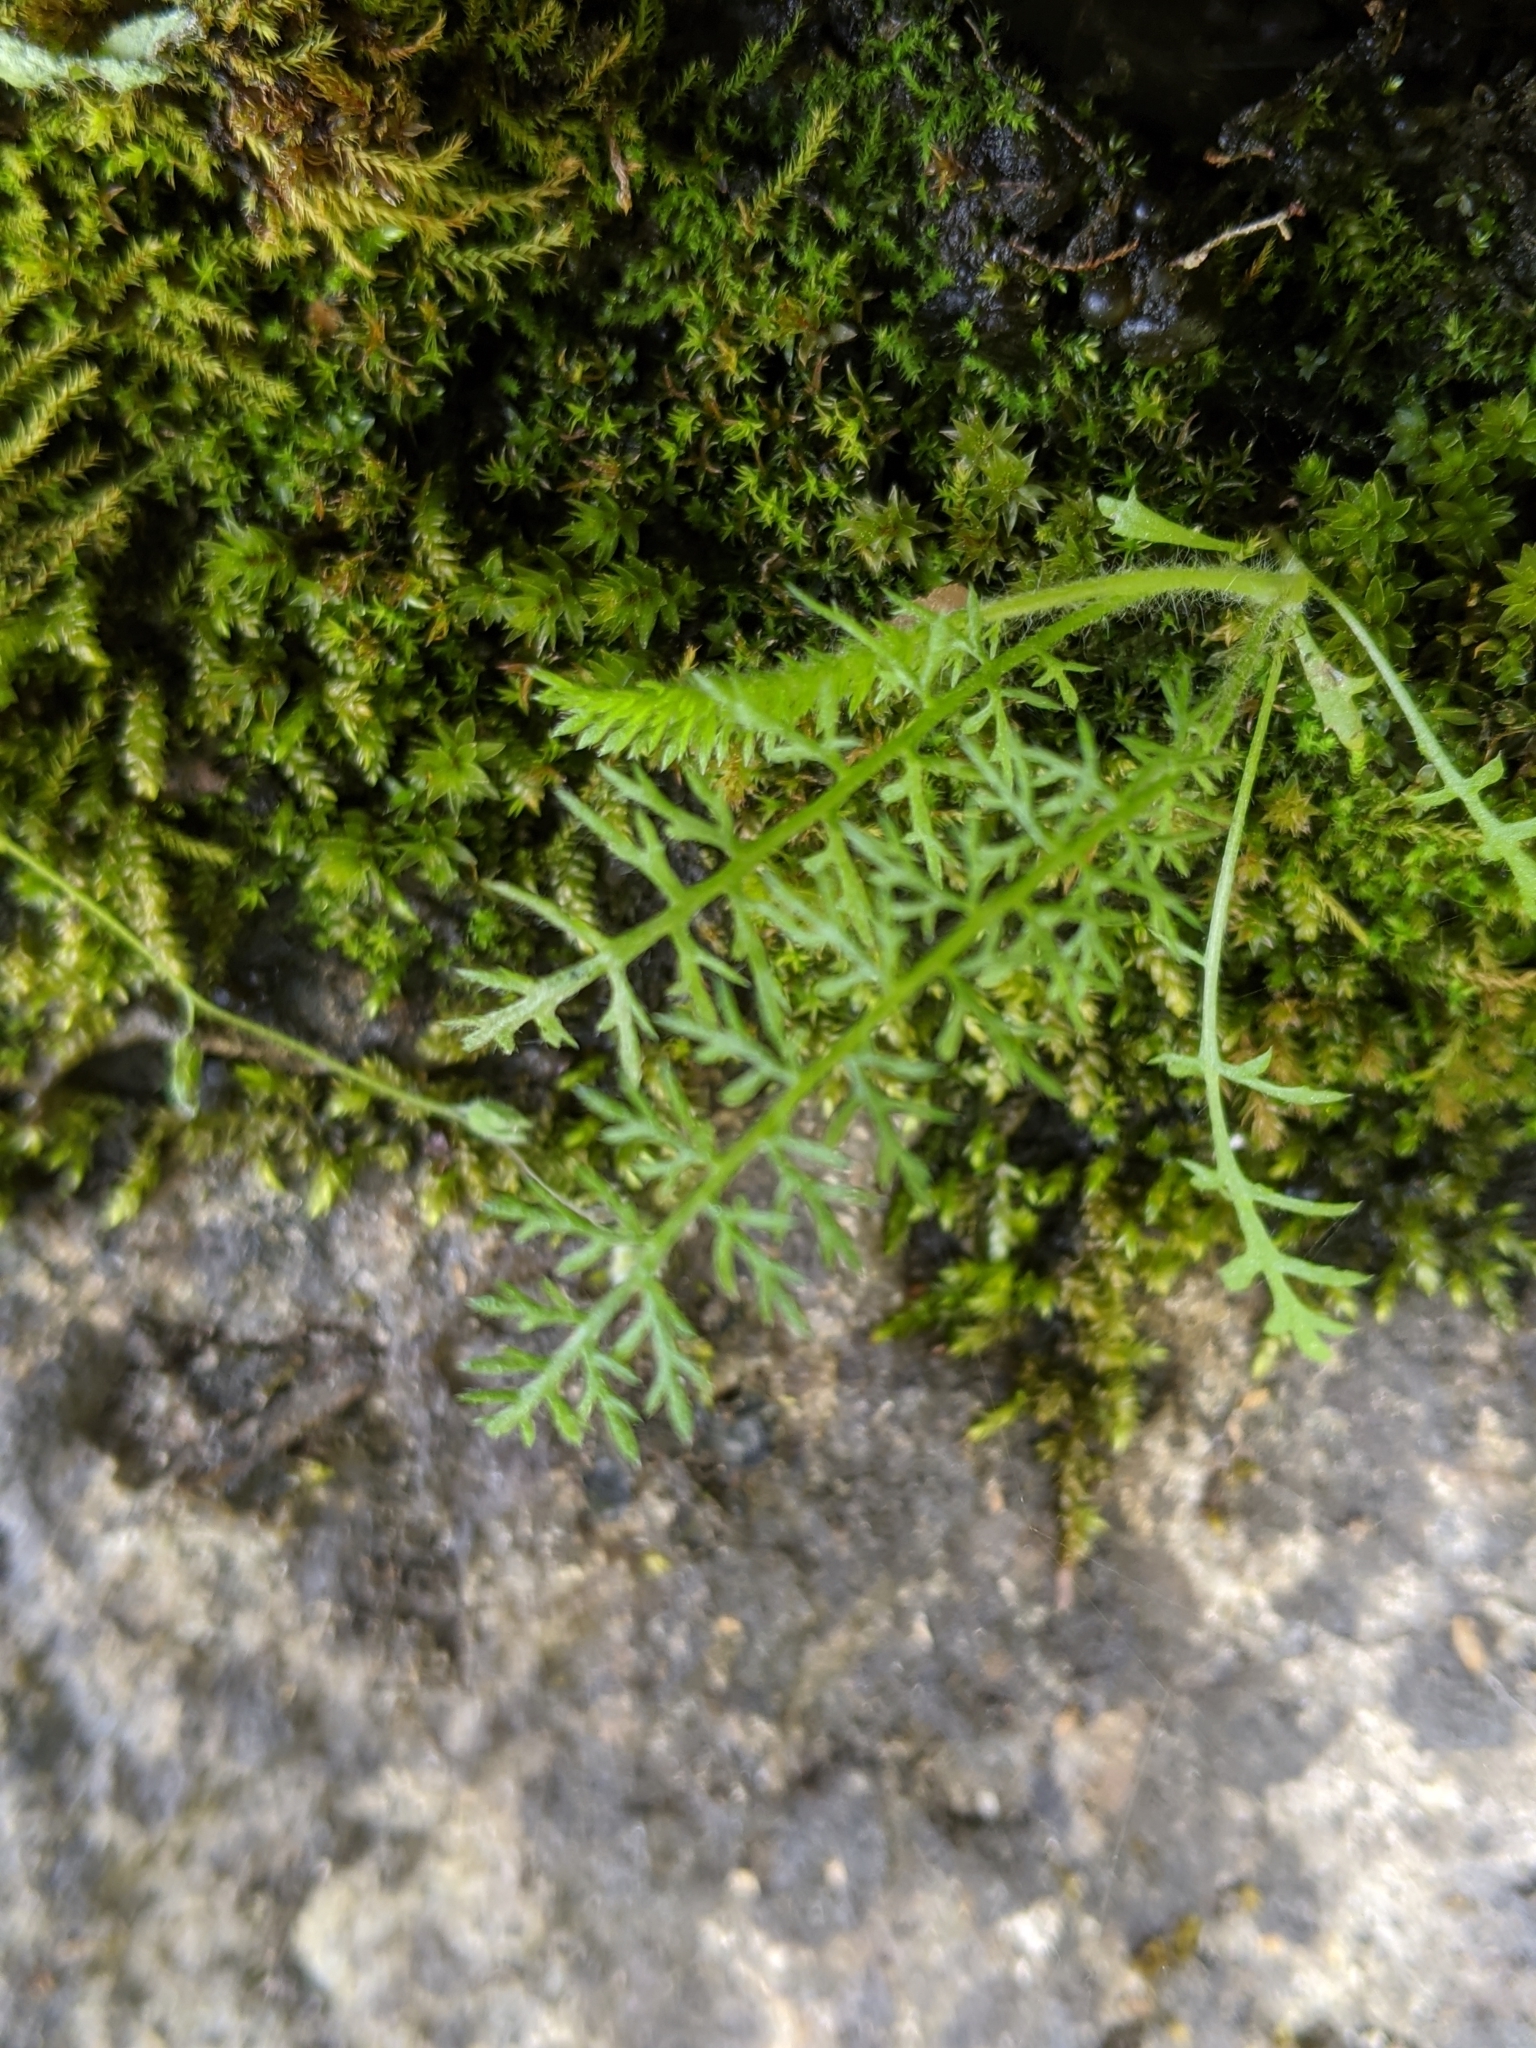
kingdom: Plantae
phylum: Tracheophyta
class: Magnoliopsida
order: Asterales
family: Asteraceae
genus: Achillea
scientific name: Achillea millefolium
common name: Yarrow
